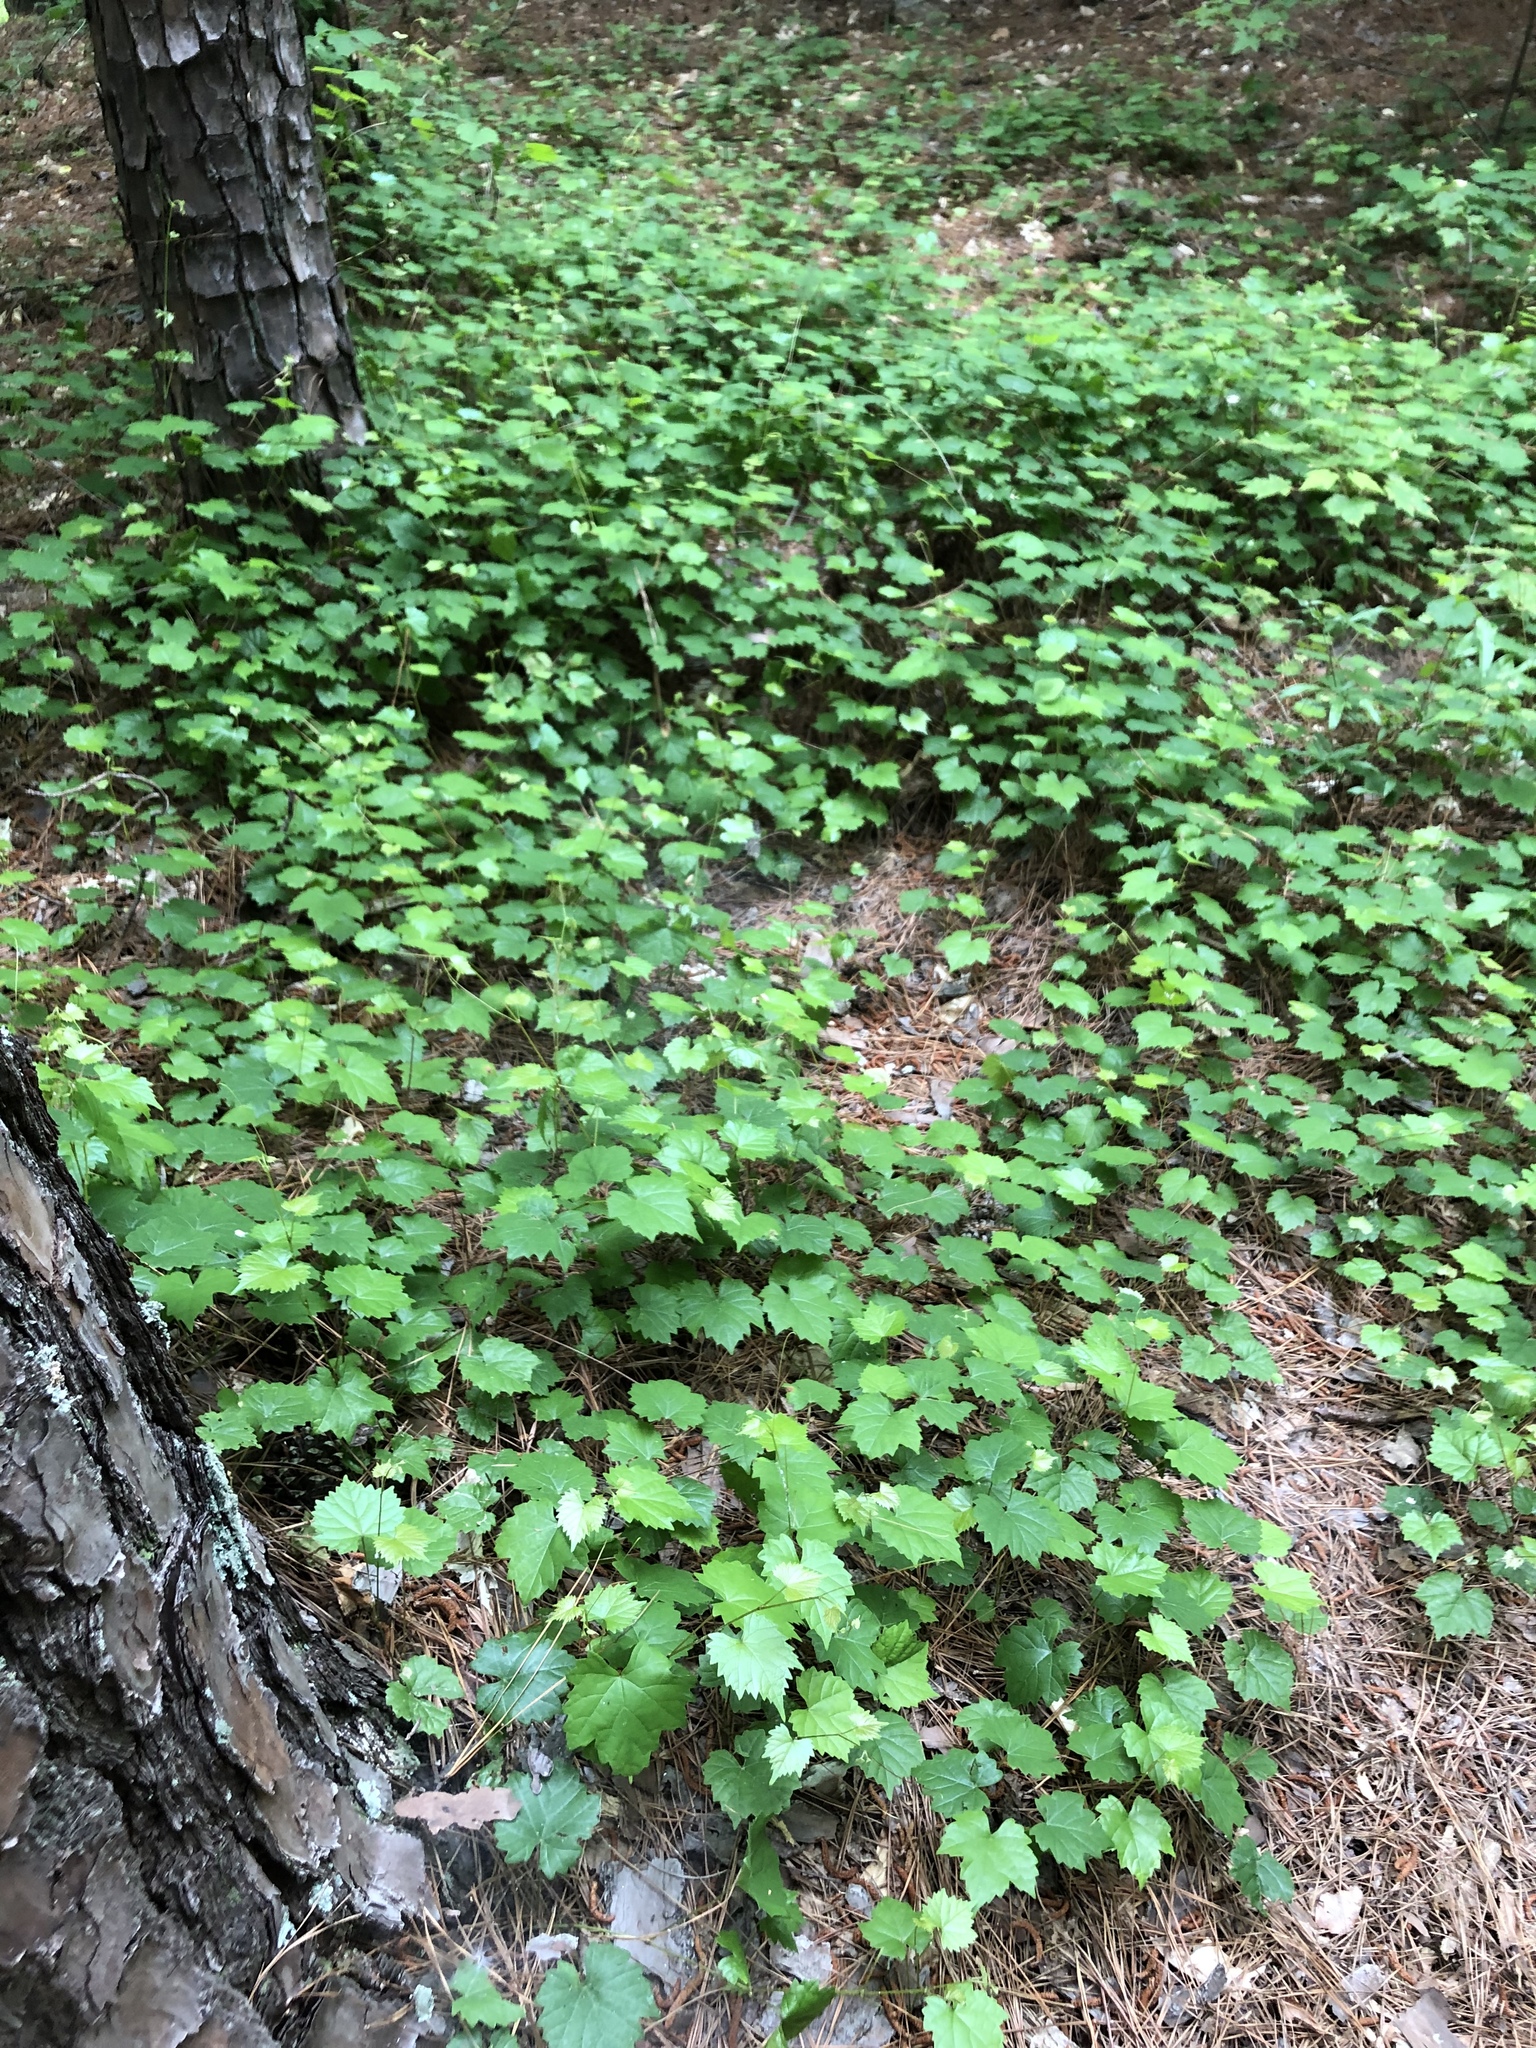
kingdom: Plantae
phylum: Tracheophyta
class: Magnoliopsida
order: Vitales
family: Vitaceae
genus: Vitis
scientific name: Vitis rotundifolia
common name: Muscadine grape
